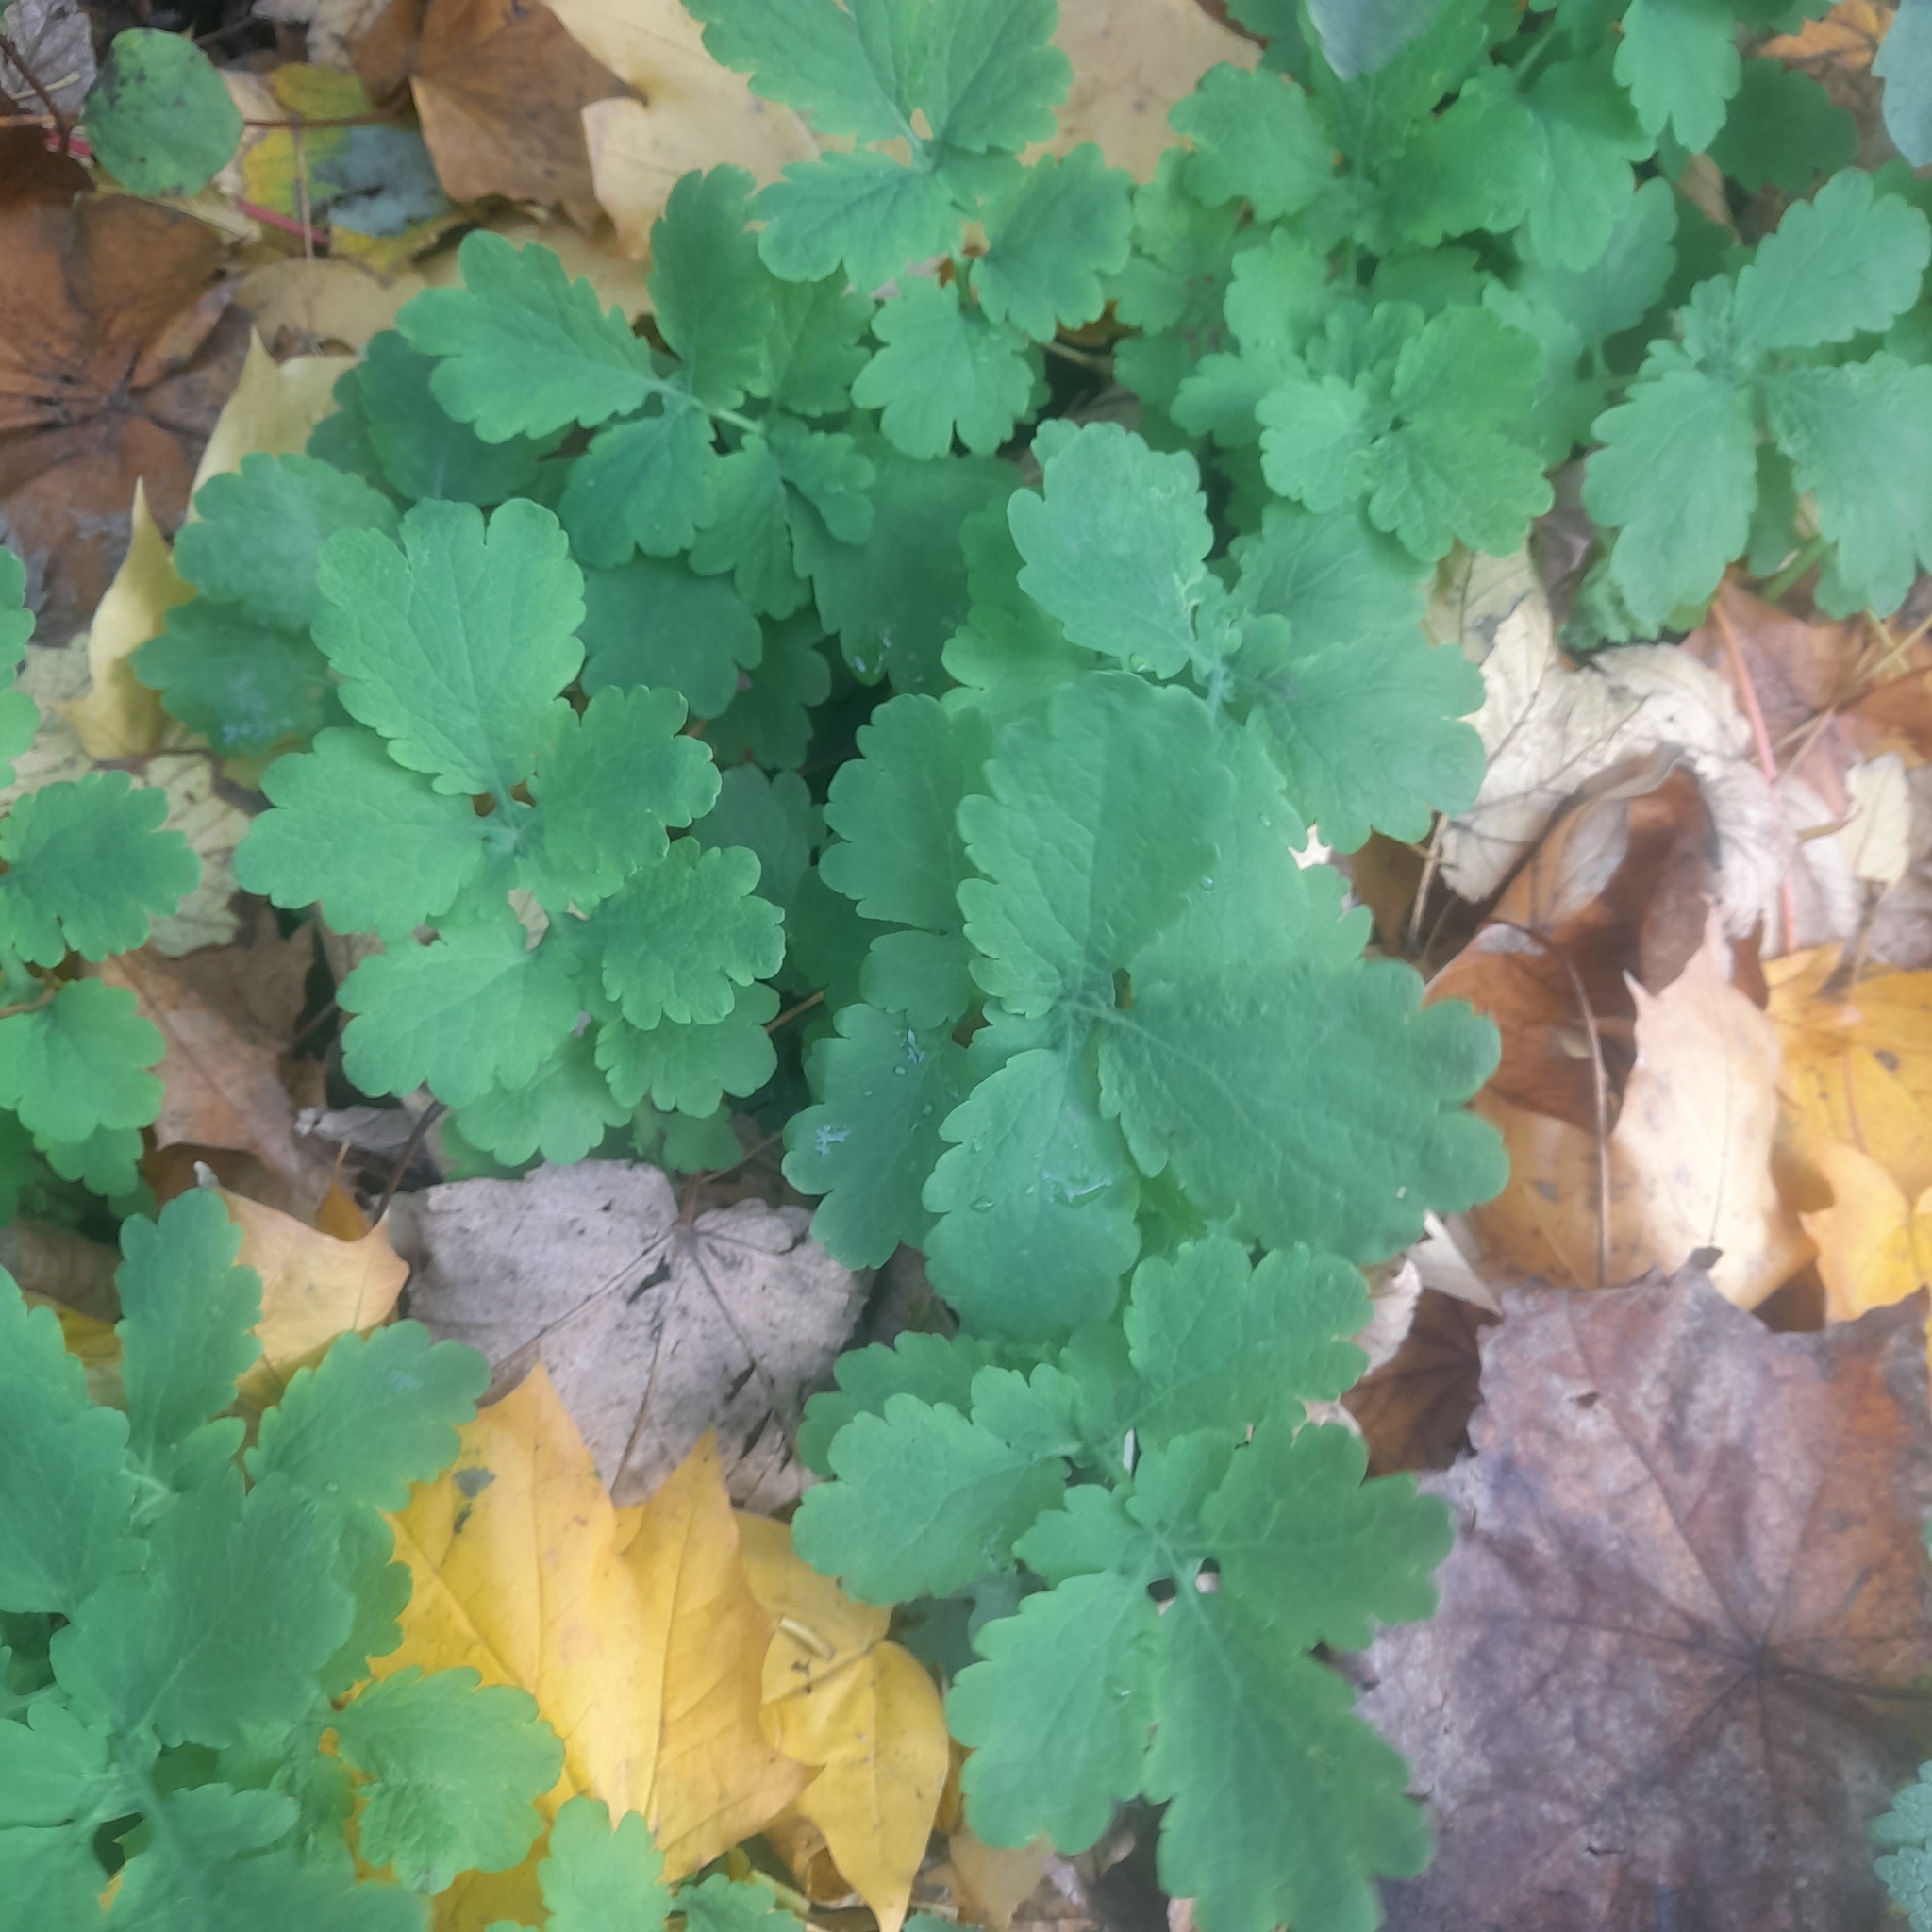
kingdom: Plantae
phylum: Tracheophyta
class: Magnoliopsida
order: Ranunculales
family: Papaveraceae
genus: Chelidonium
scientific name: Chelidonium majus
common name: Greater celandine
